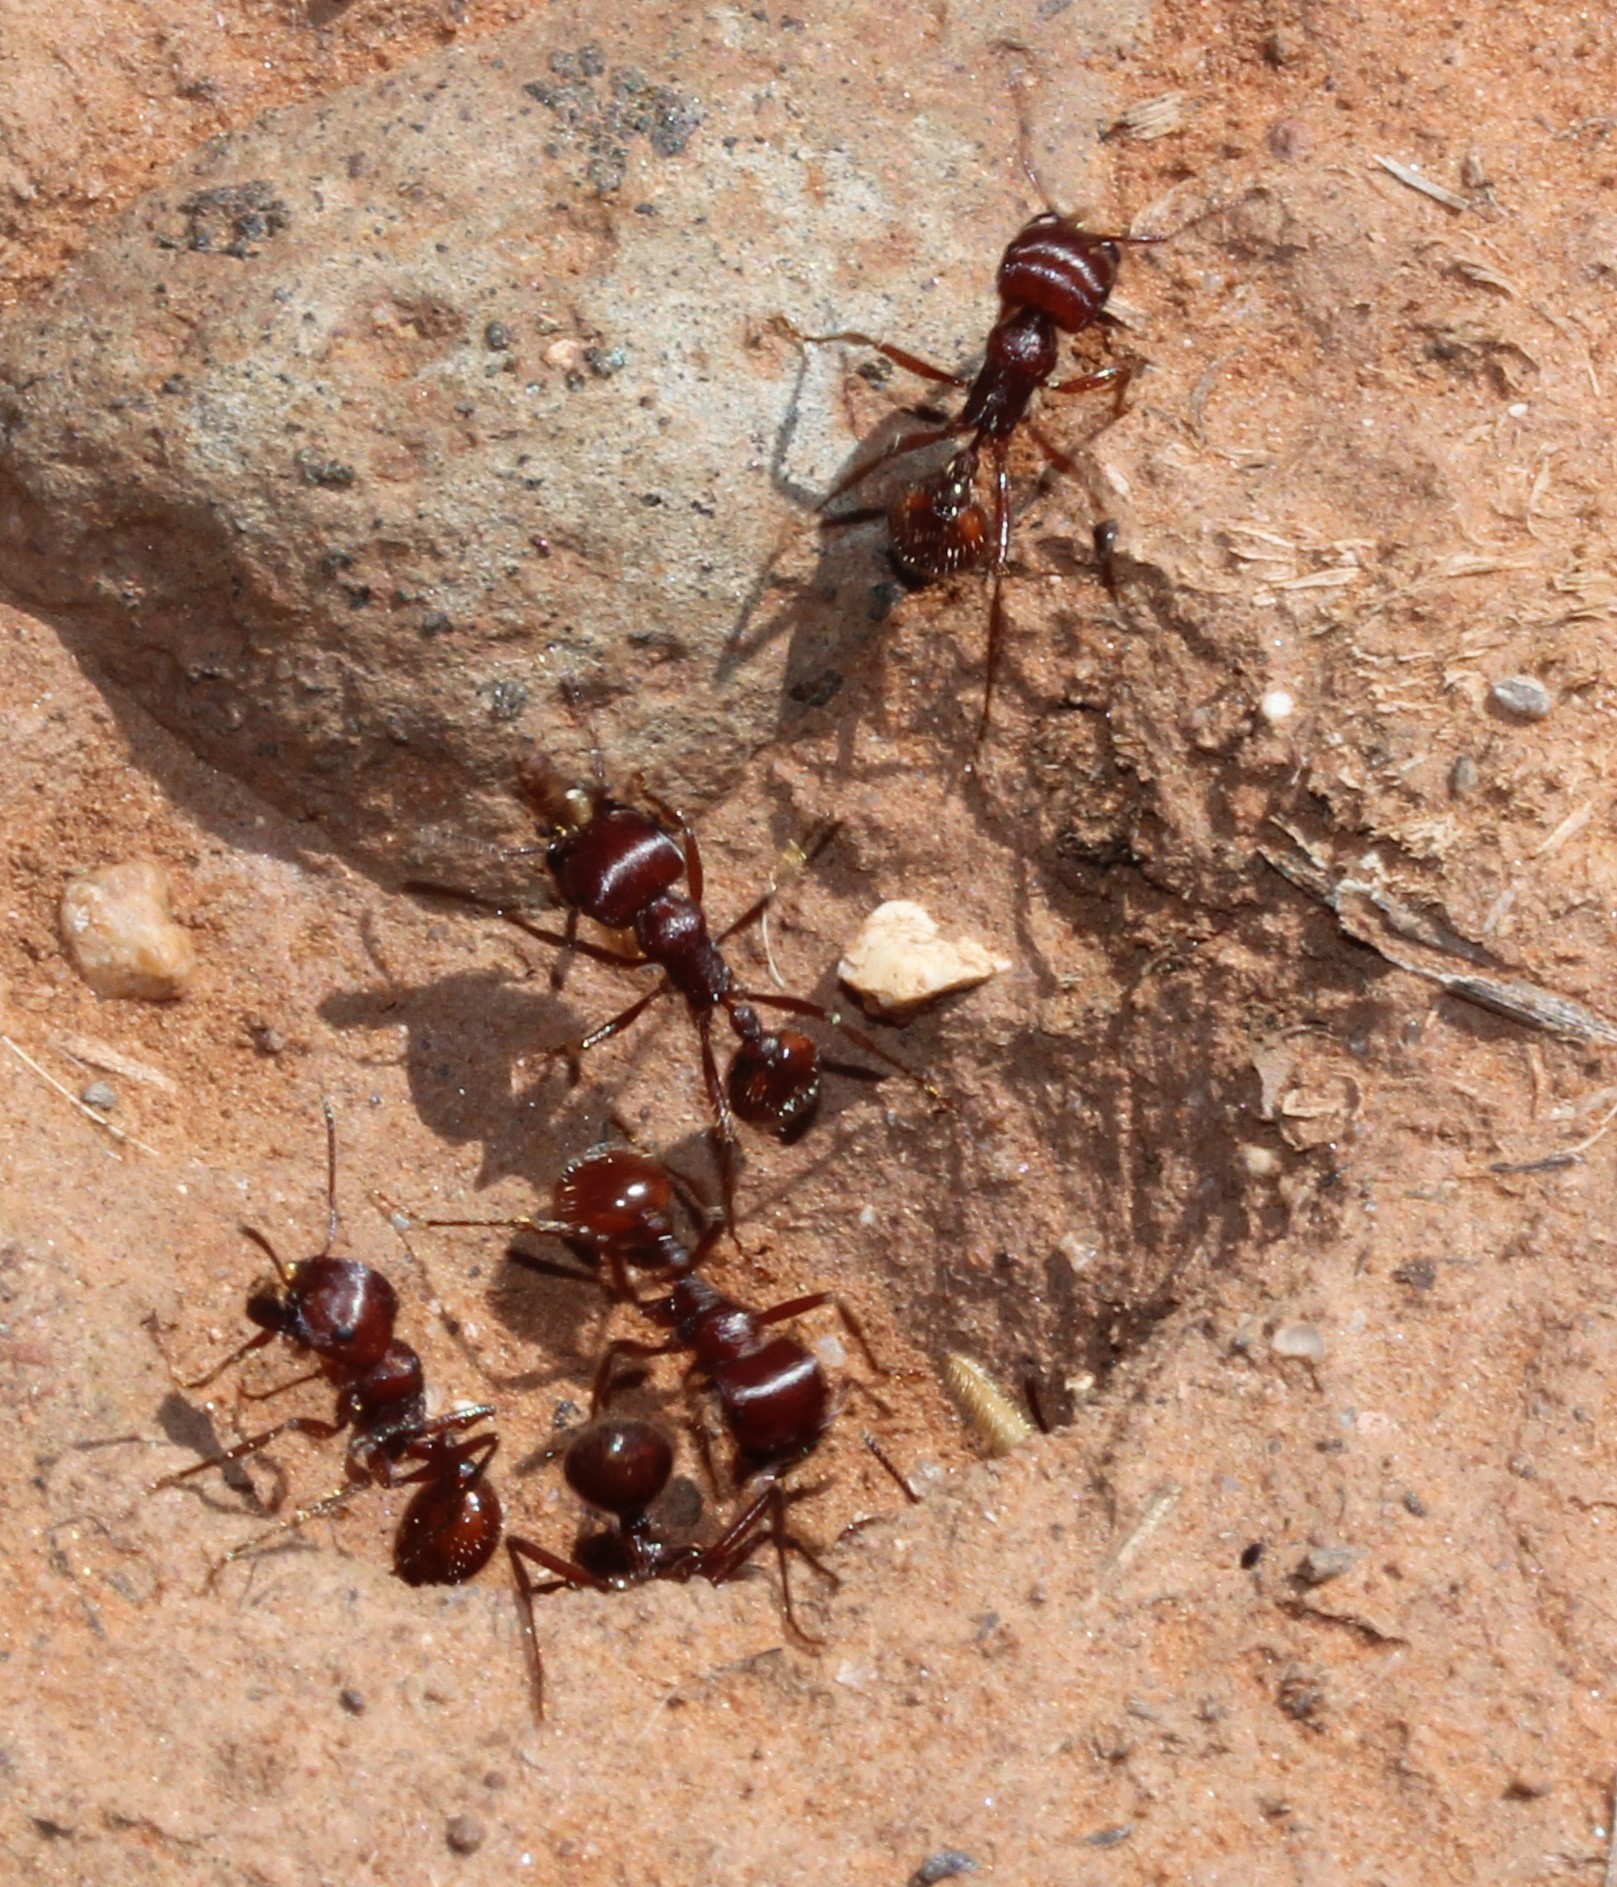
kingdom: Animalia
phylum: Arthropoda
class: Insecta
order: Hymenoptera
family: Formicidae
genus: Pogonomyrmex
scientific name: Pogonomyrmex barbatus
